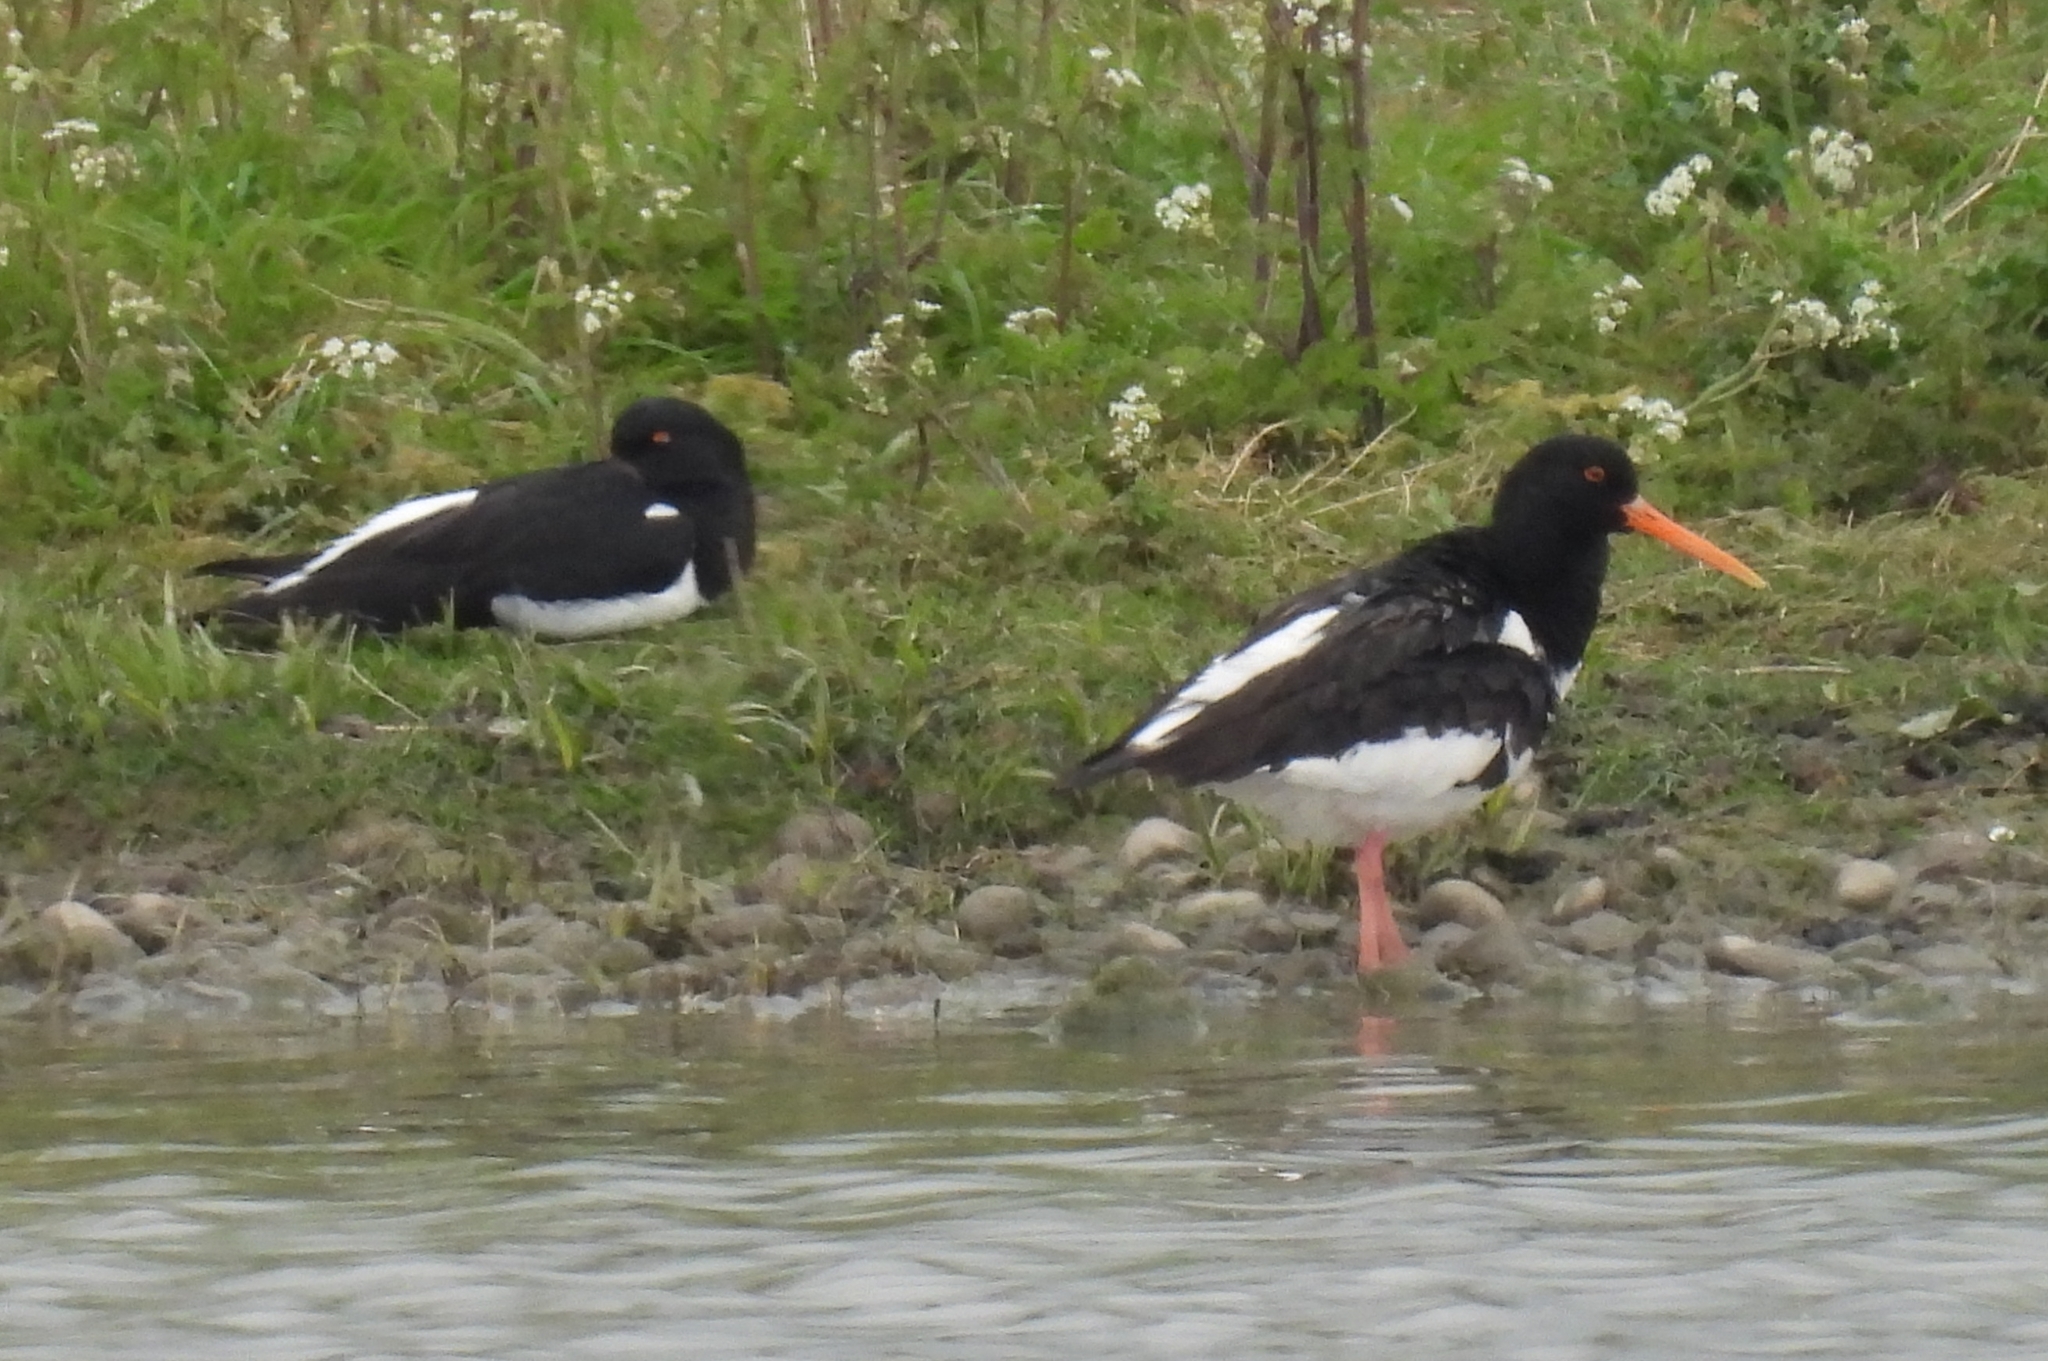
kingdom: Animalia
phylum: Chordata
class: Aves
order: Charadriiformes
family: Haematopodidae
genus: Haematopus
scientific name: Haematopus ostralegus
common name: Eurasian oystercatcher
